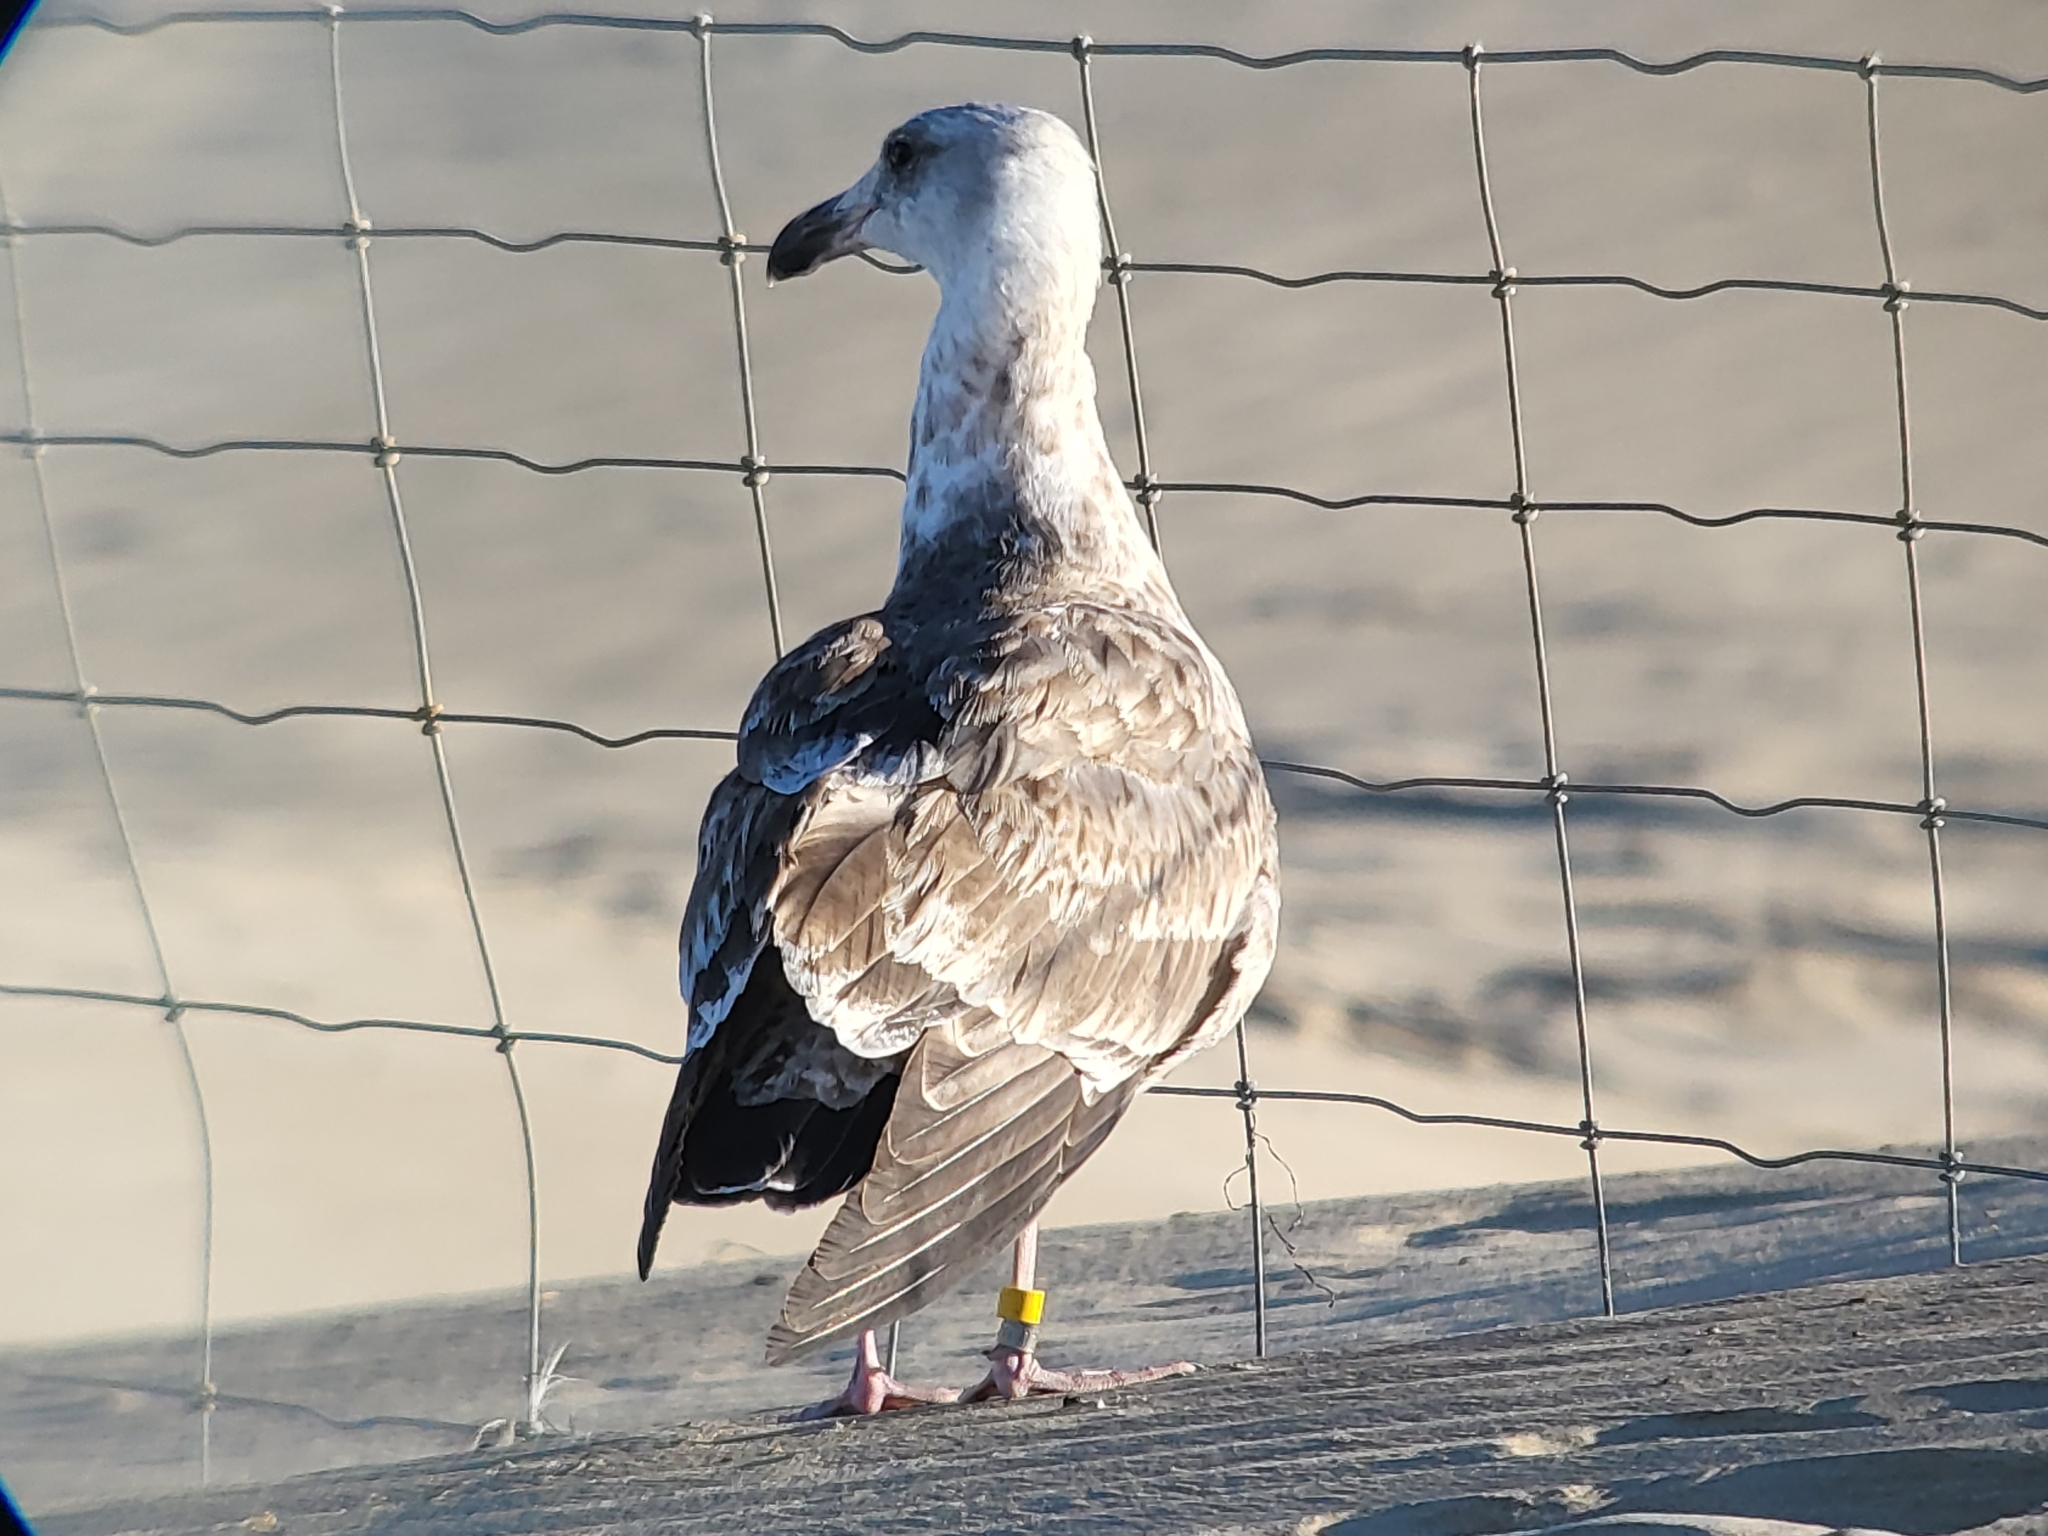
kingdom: Animalia
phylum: Chordata
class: Aves
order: Charadriiformes
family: Laridae
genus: Larus
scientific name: Larus occidentalis
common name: Western gull
